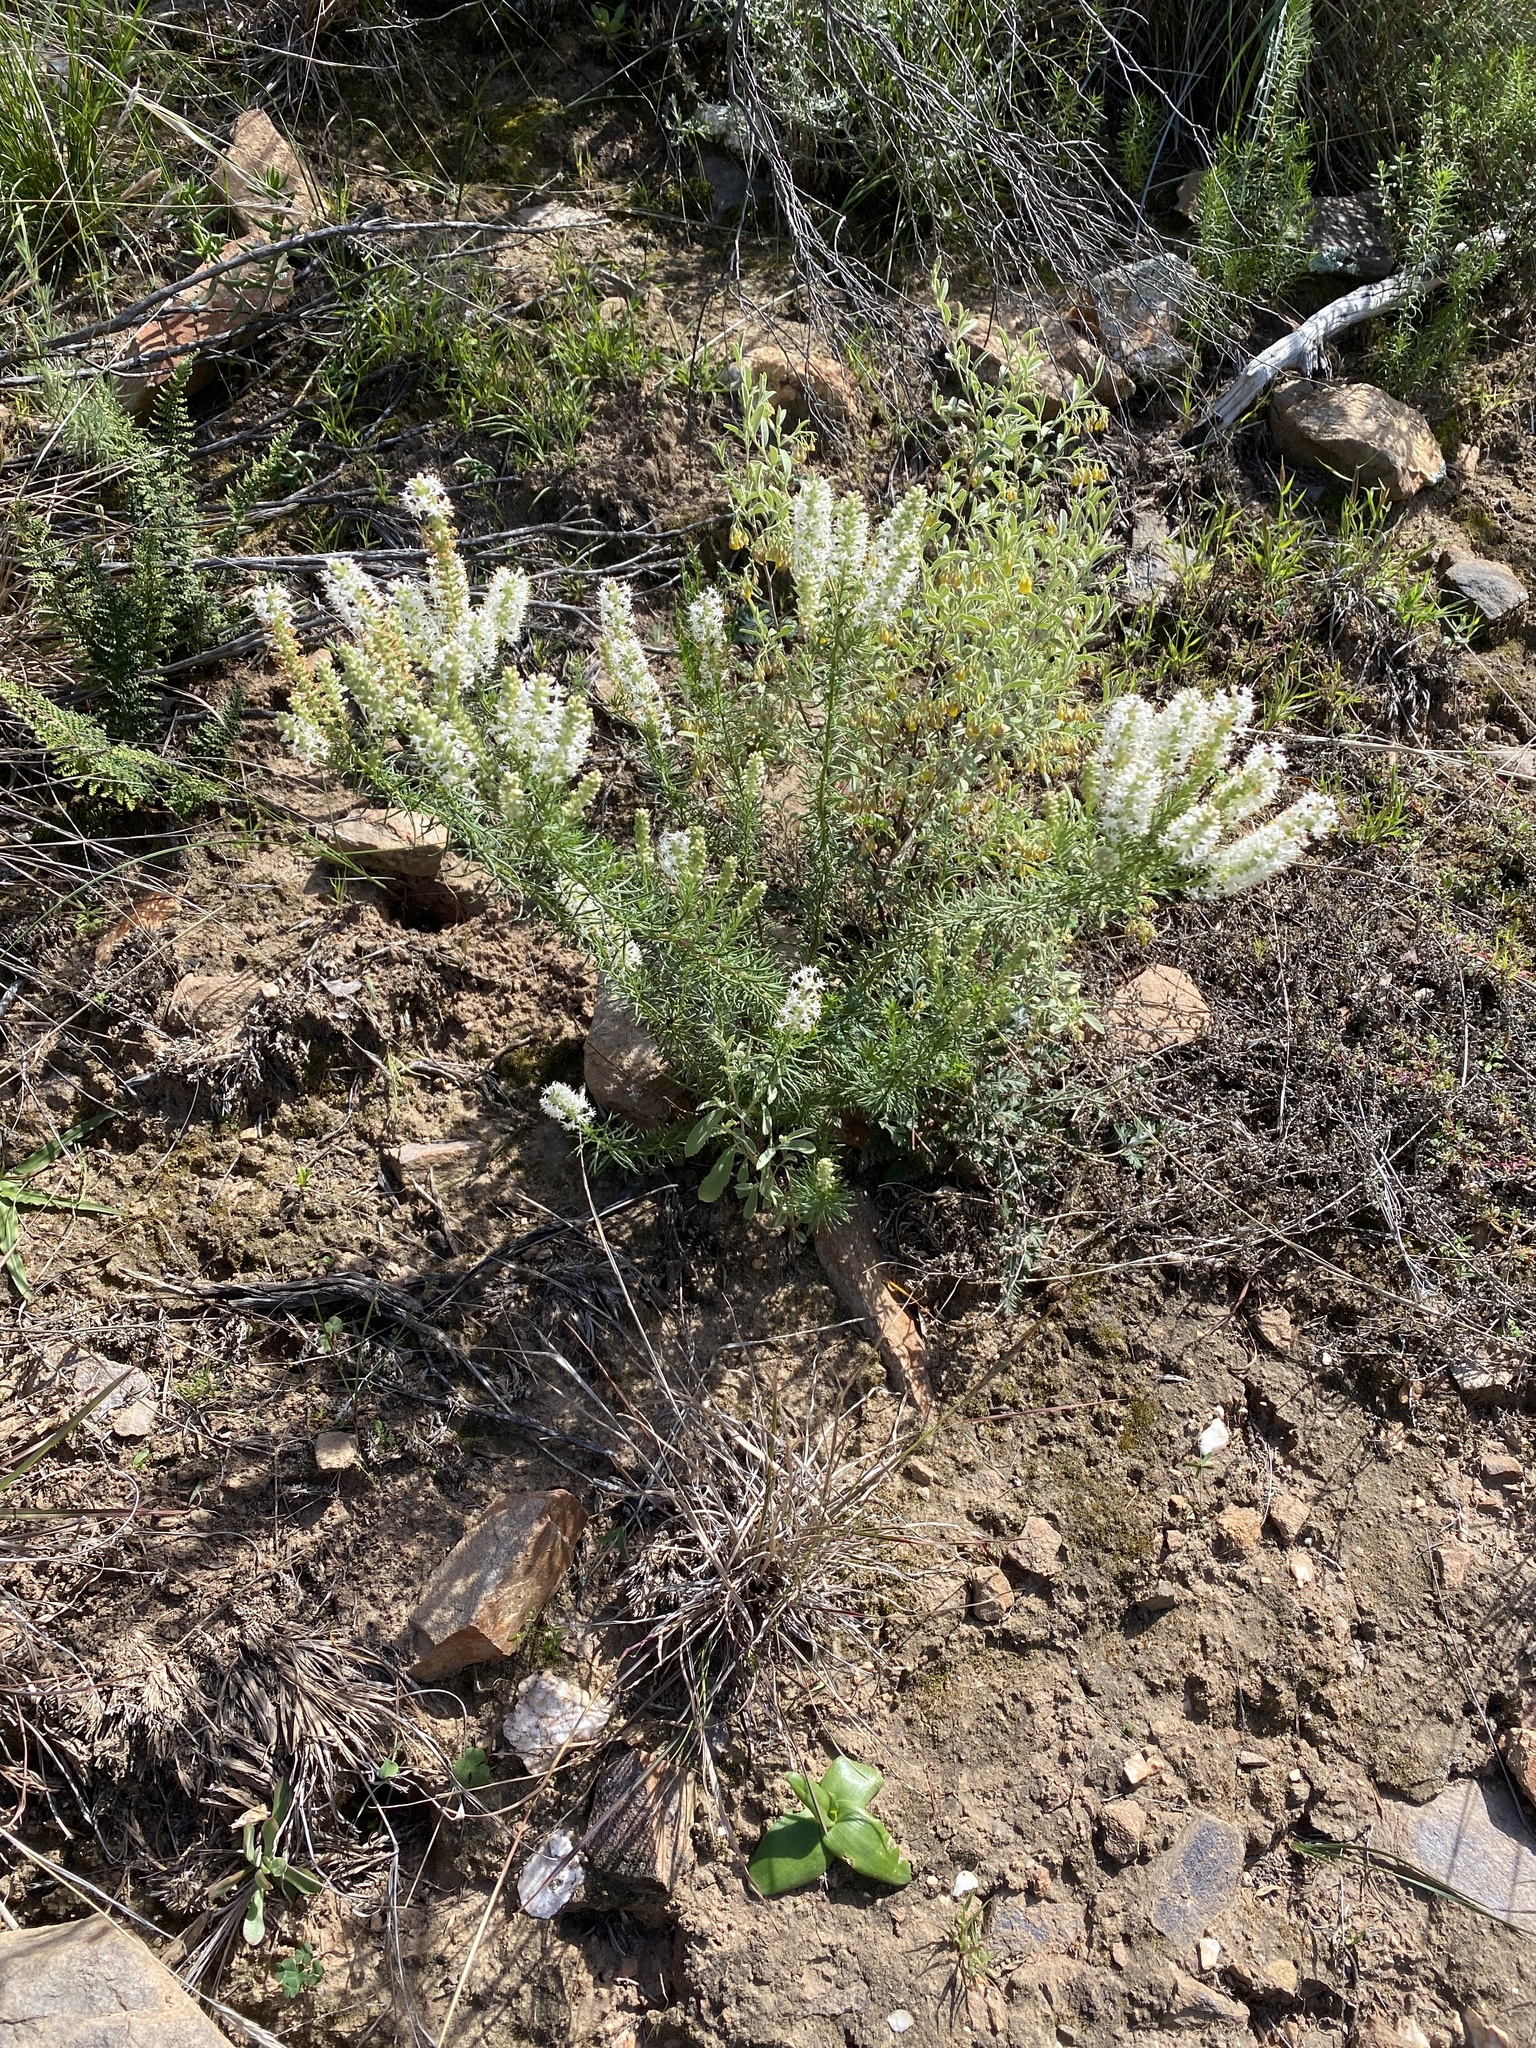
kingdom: Plantae
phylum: Tracheophyta
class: Magnoliopsida
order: Lamiales
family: Scrophulariaceae
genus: Selago
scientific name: Selago eckloniana
